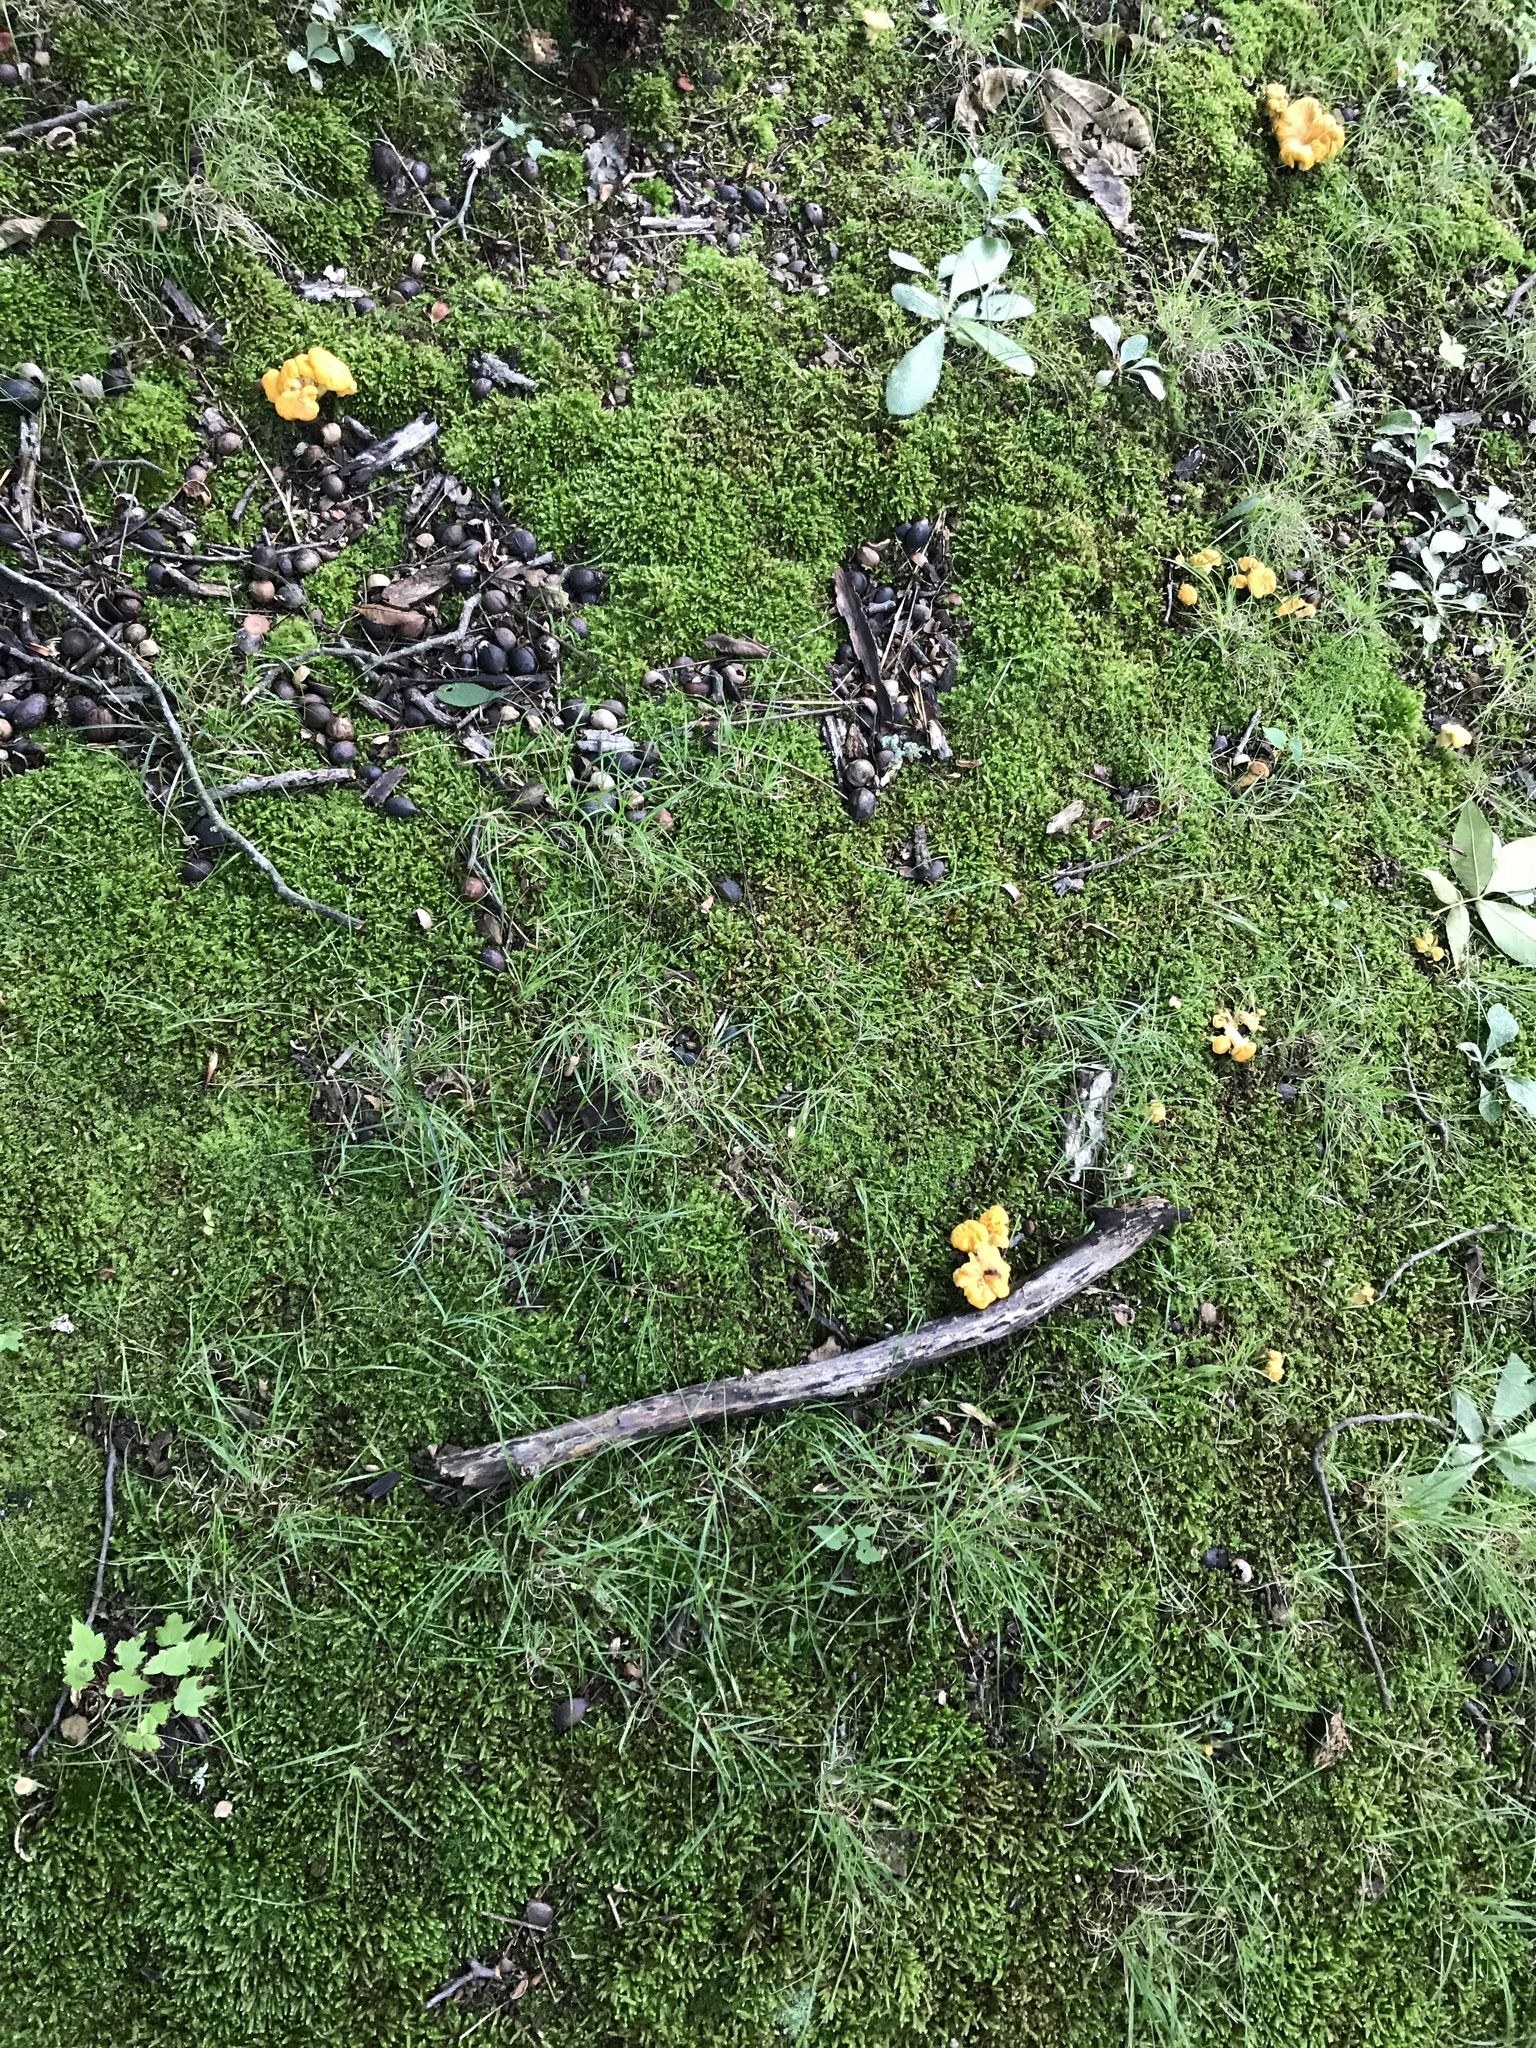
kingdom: Fungi
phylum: Basidiomycota
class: Agaricomycetes
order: Cantharellales
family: Hydnaceae
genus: Cantharellus
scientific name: Cantharellus flavolateritius
